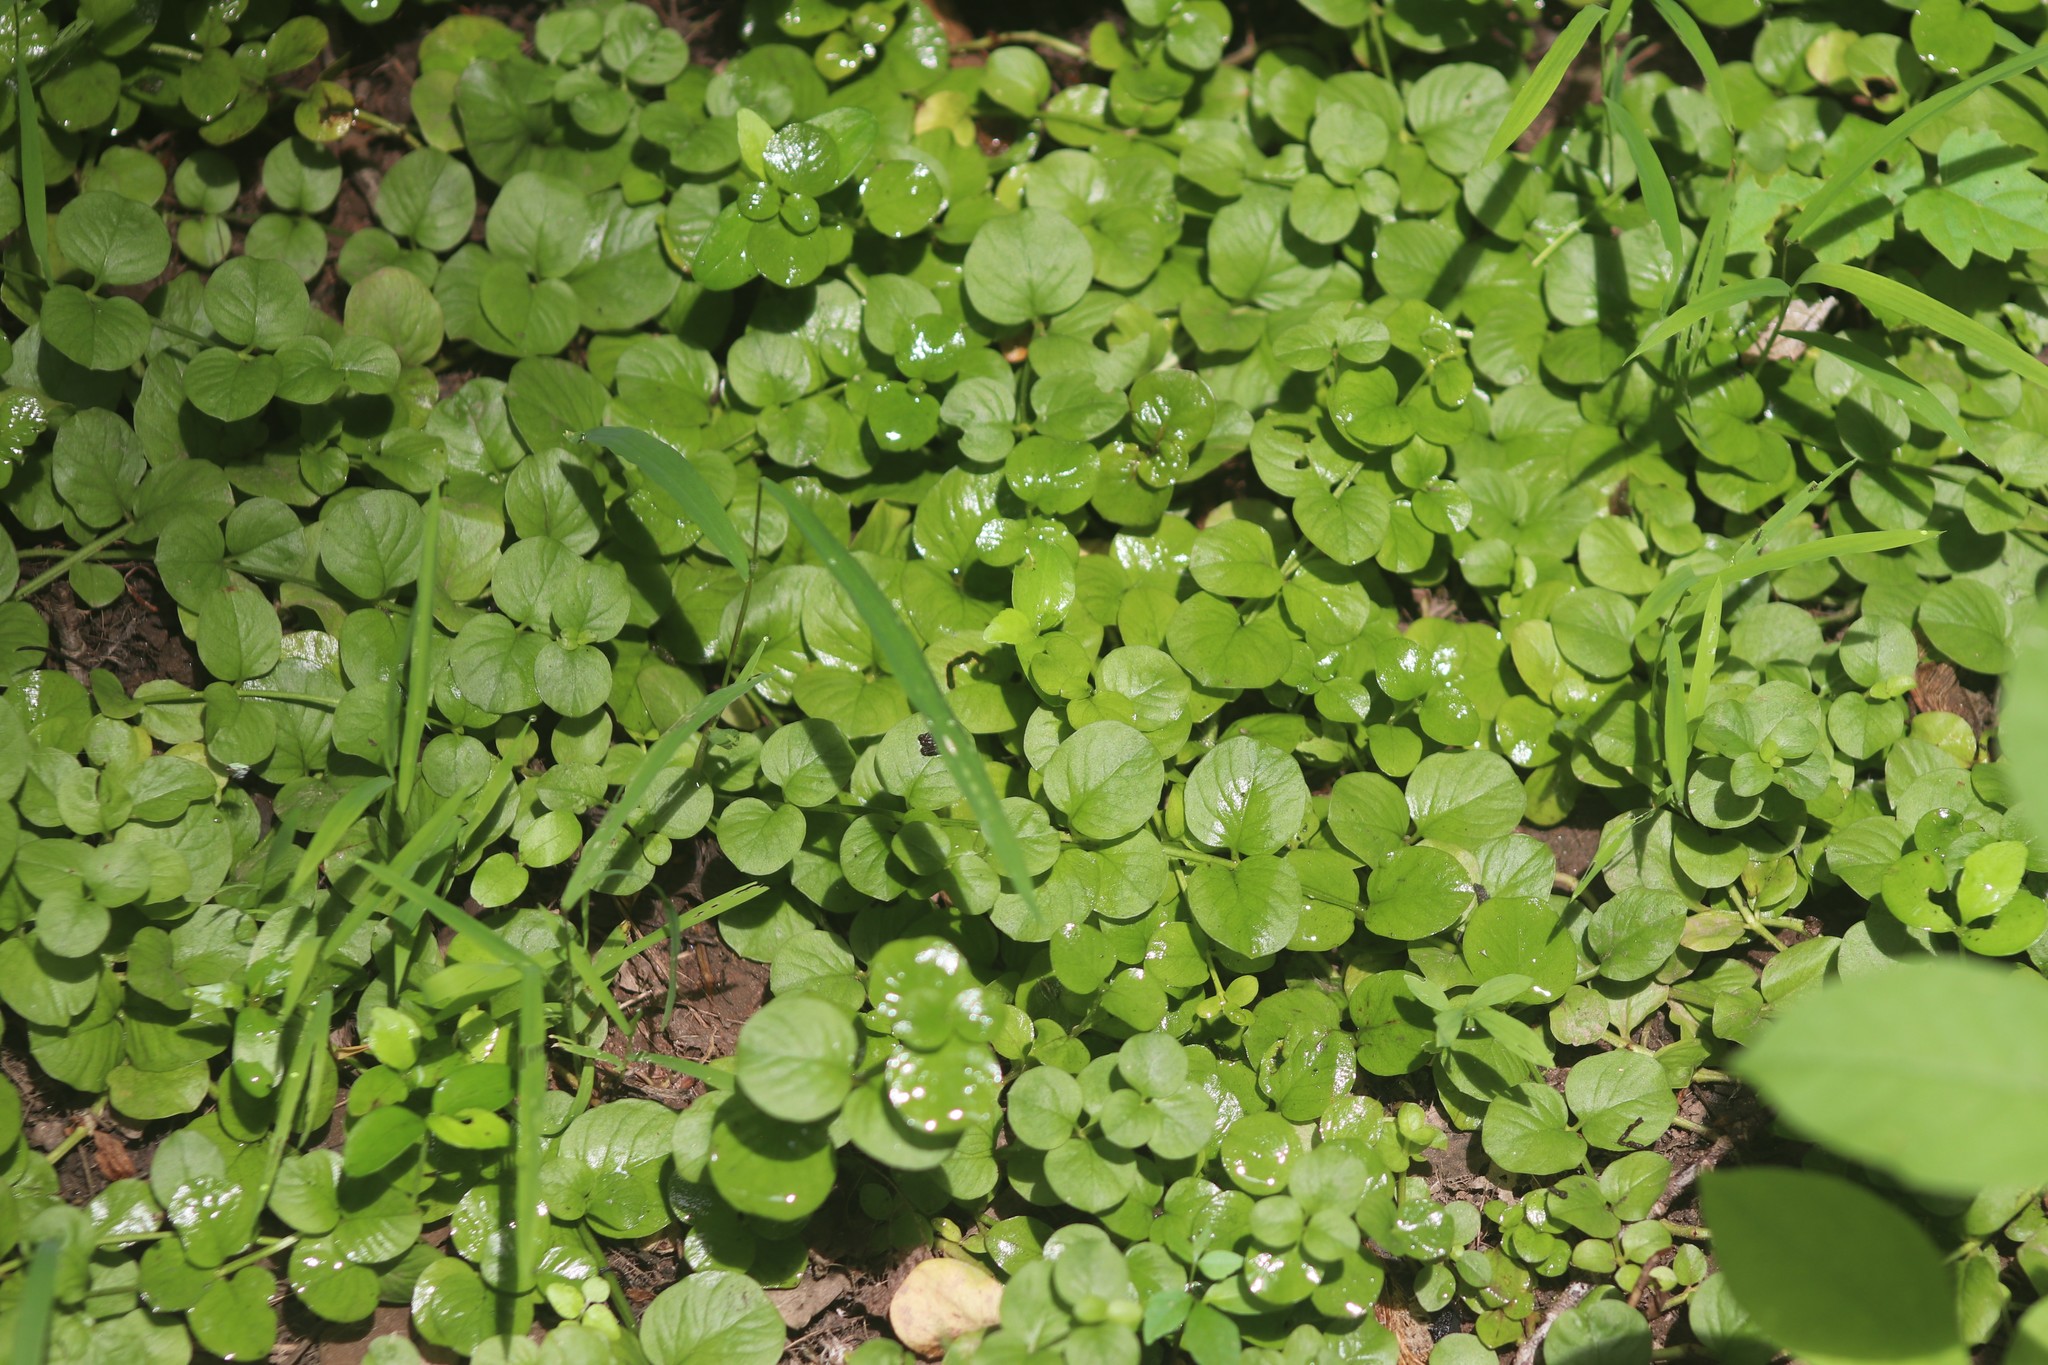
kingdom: Plantae
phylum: Tracheophyta
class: Magnoliopsida
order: Ericales
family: Primulaceae
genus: Lysimachia
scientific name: Lysimachia nummularia
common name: Moneywort
